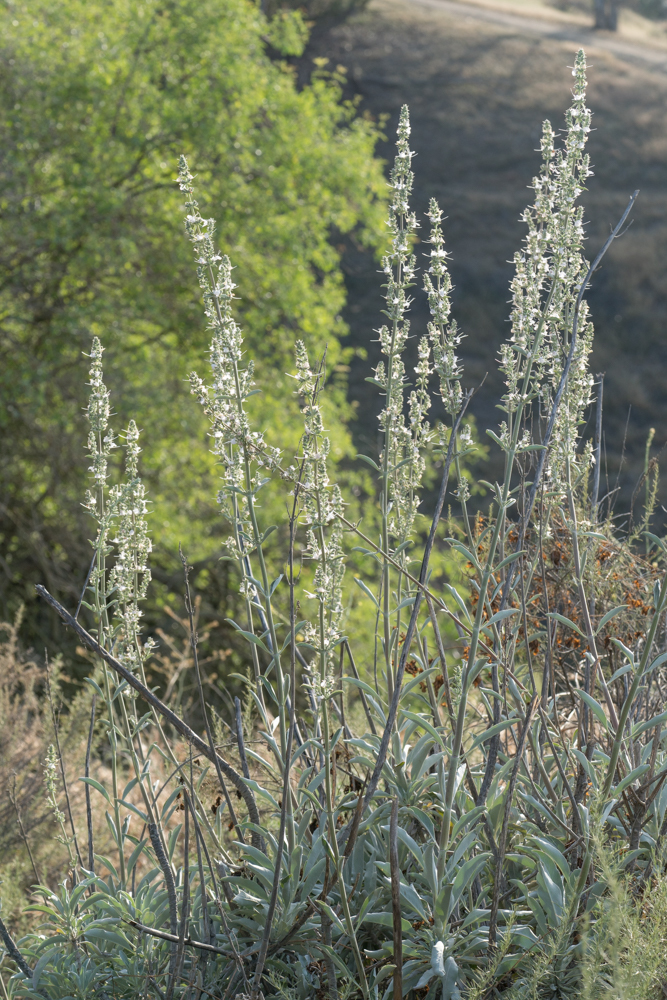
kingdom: Plantae
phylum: Tracheophyta
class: Magnoliopsida
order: Lamiales
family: Lamiaceae
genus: Salvia
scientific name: Salvia apiana
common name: White sage
